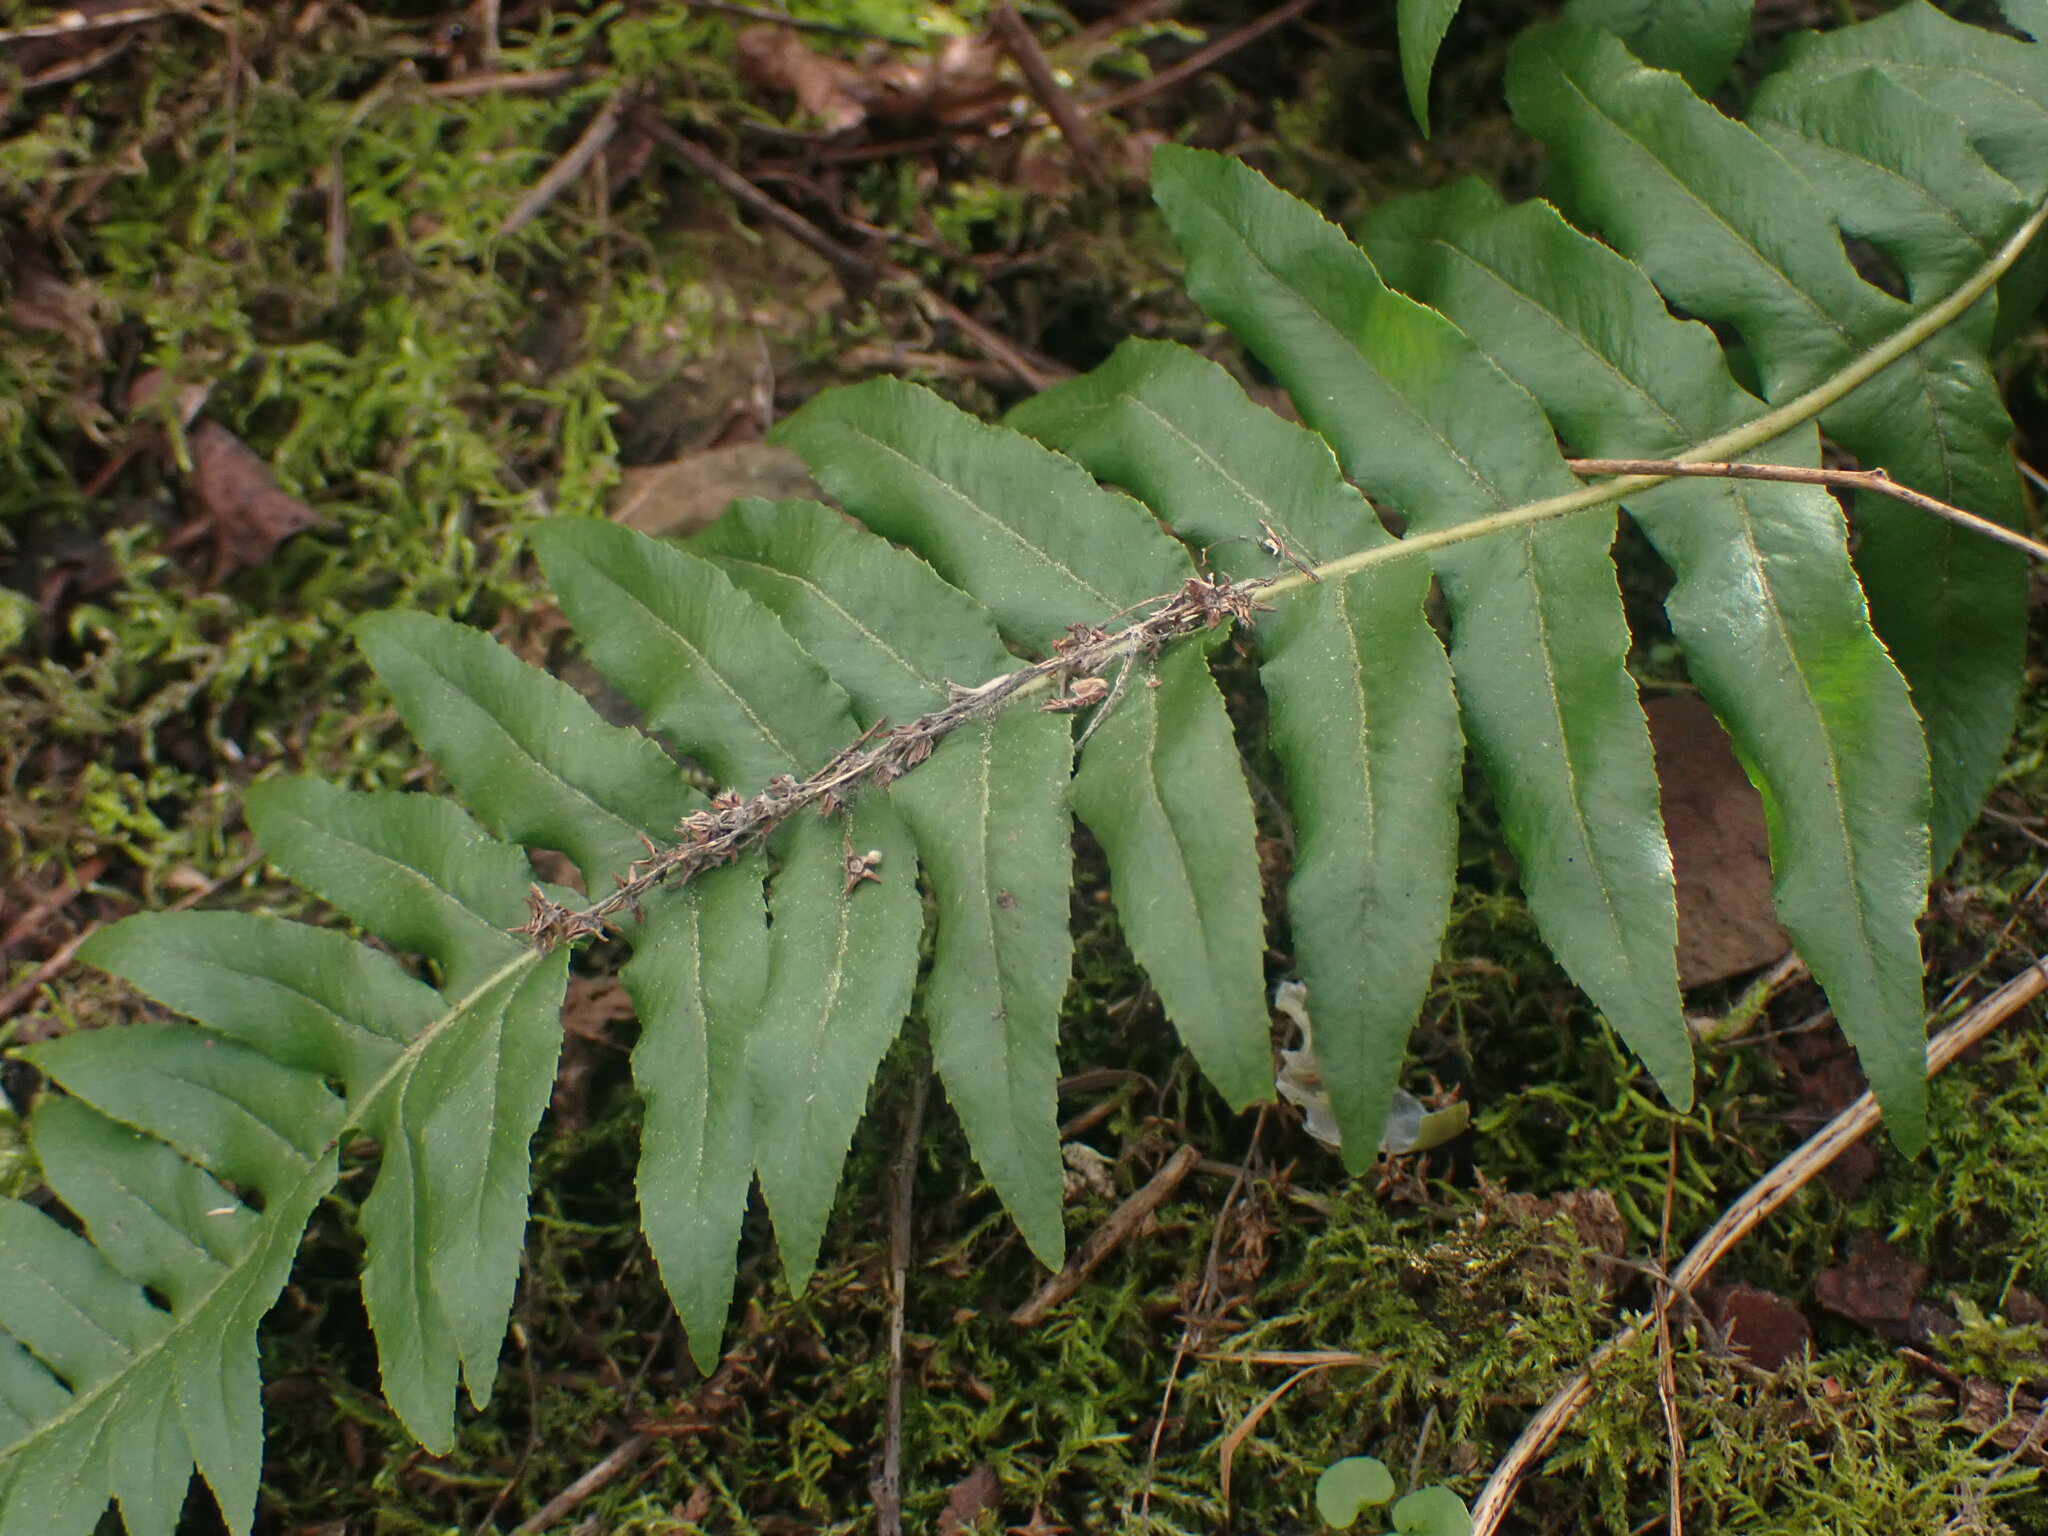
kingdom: Plantae
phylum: Tracheophyta
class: Polypodiopsida
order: Polypodiales
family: Polypodiaceae
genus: Polypodium
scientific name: Polypodium glycyrrhiza
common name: Licorice fern
